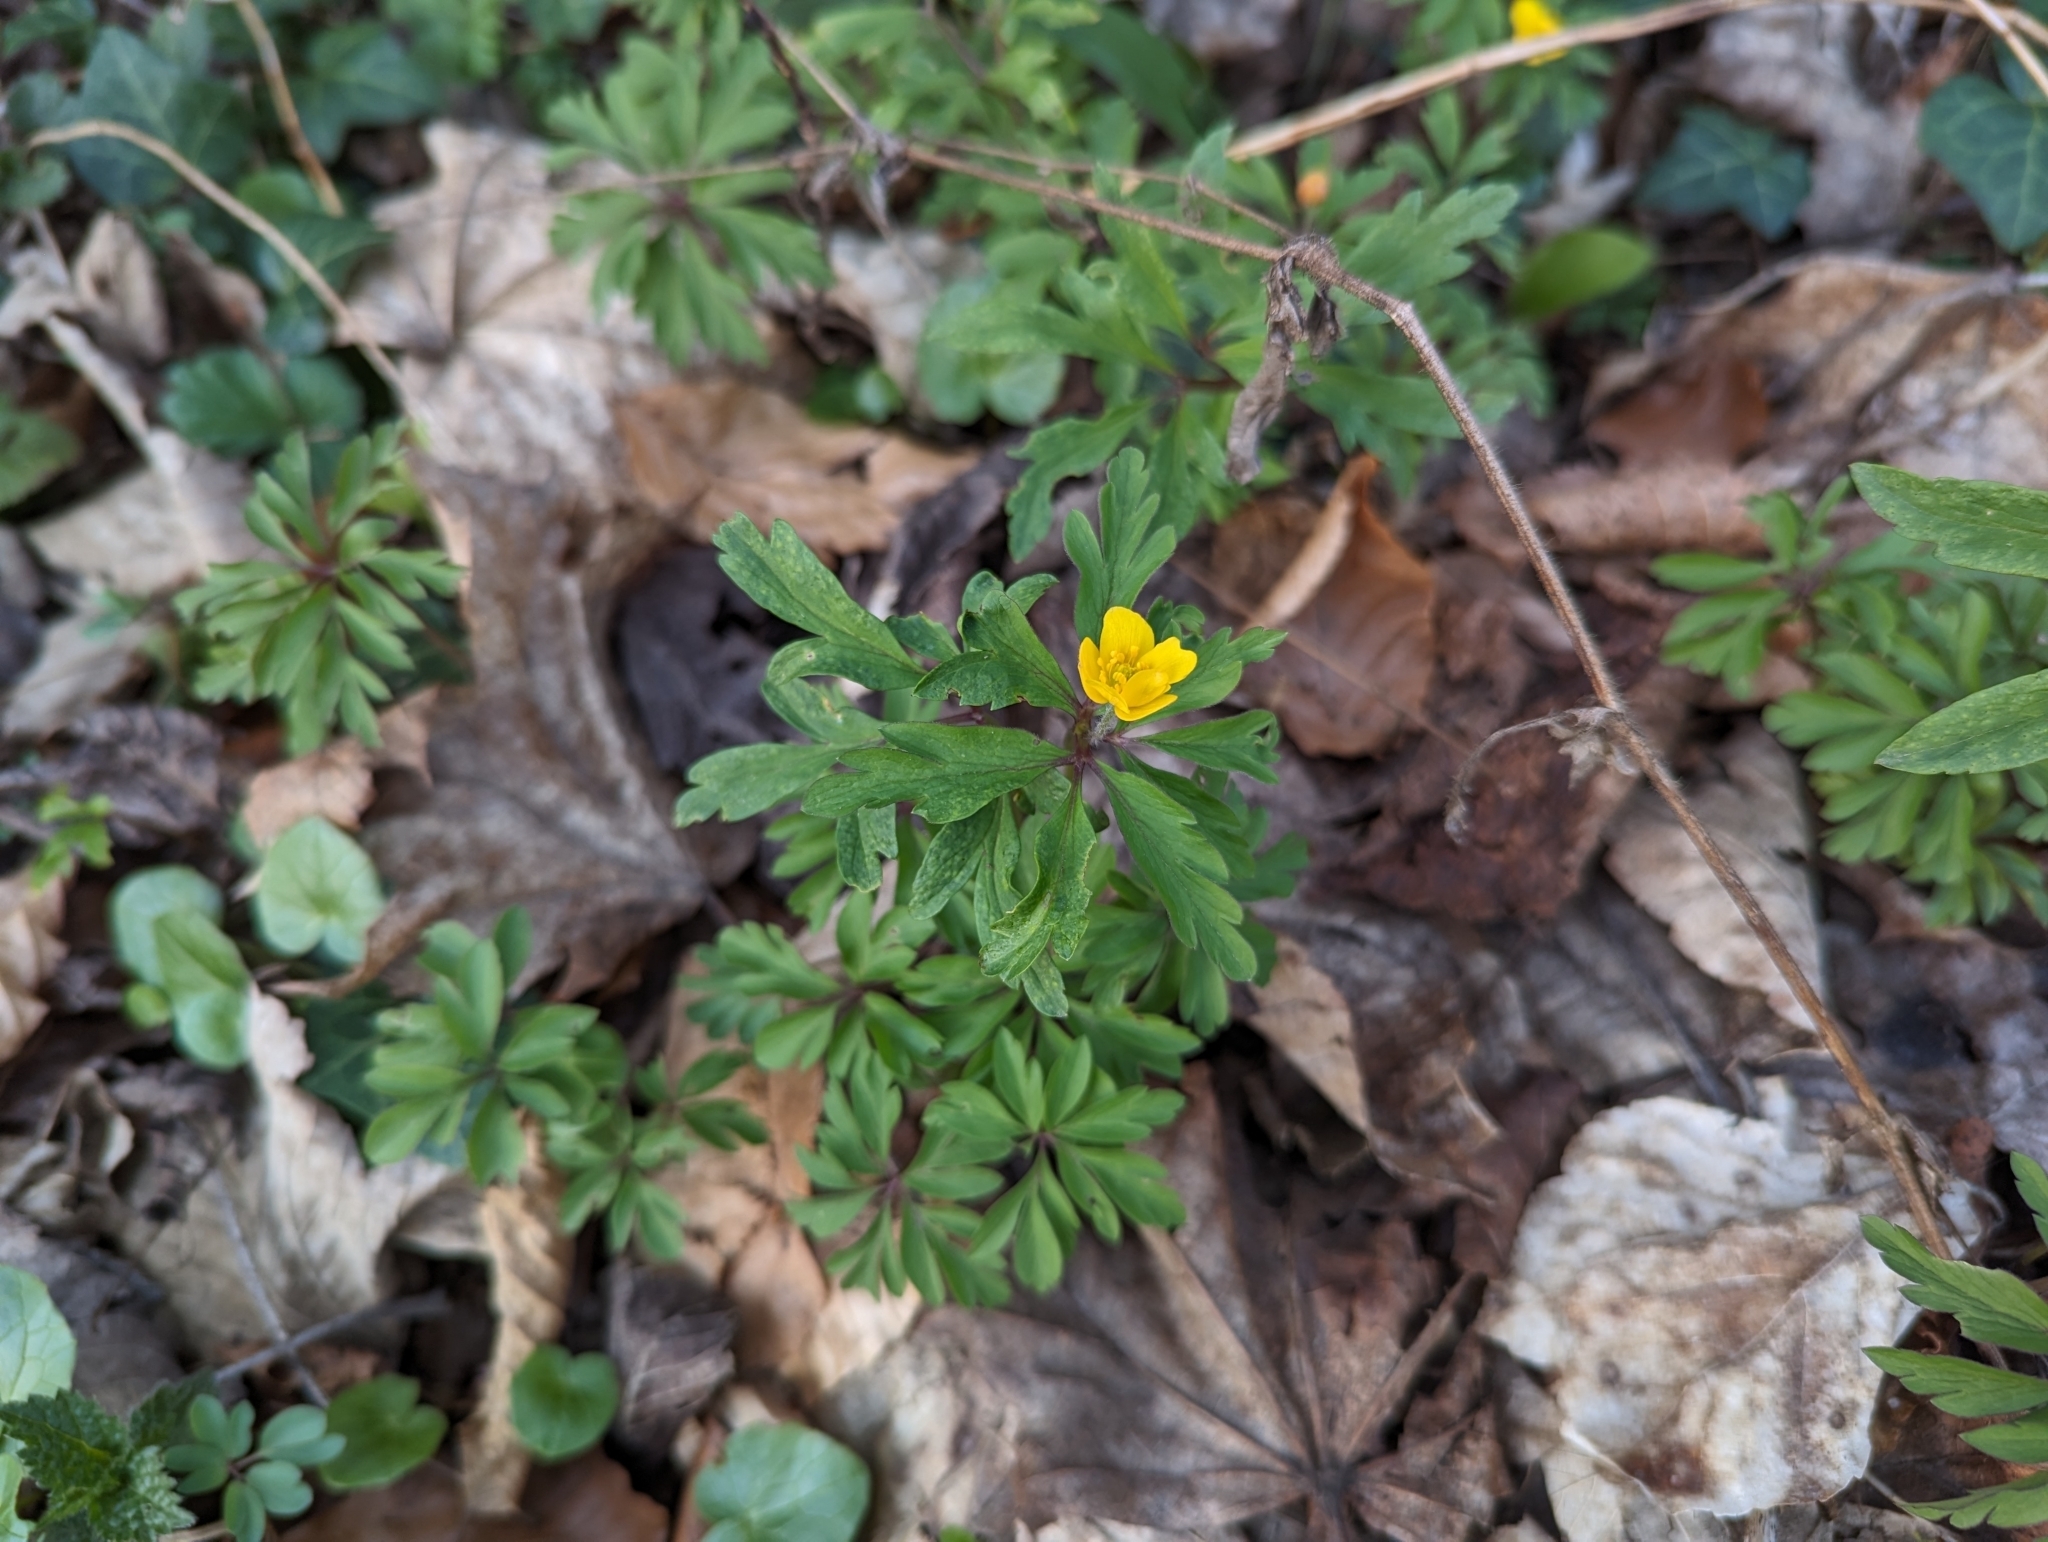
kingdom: Plantae
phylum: Tracheophyta
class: Magnoliopsida
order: Ranunculales
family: Ranunculaceae
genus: Anemone
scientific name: Anemone ranunculoides
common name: Yellow anemone
